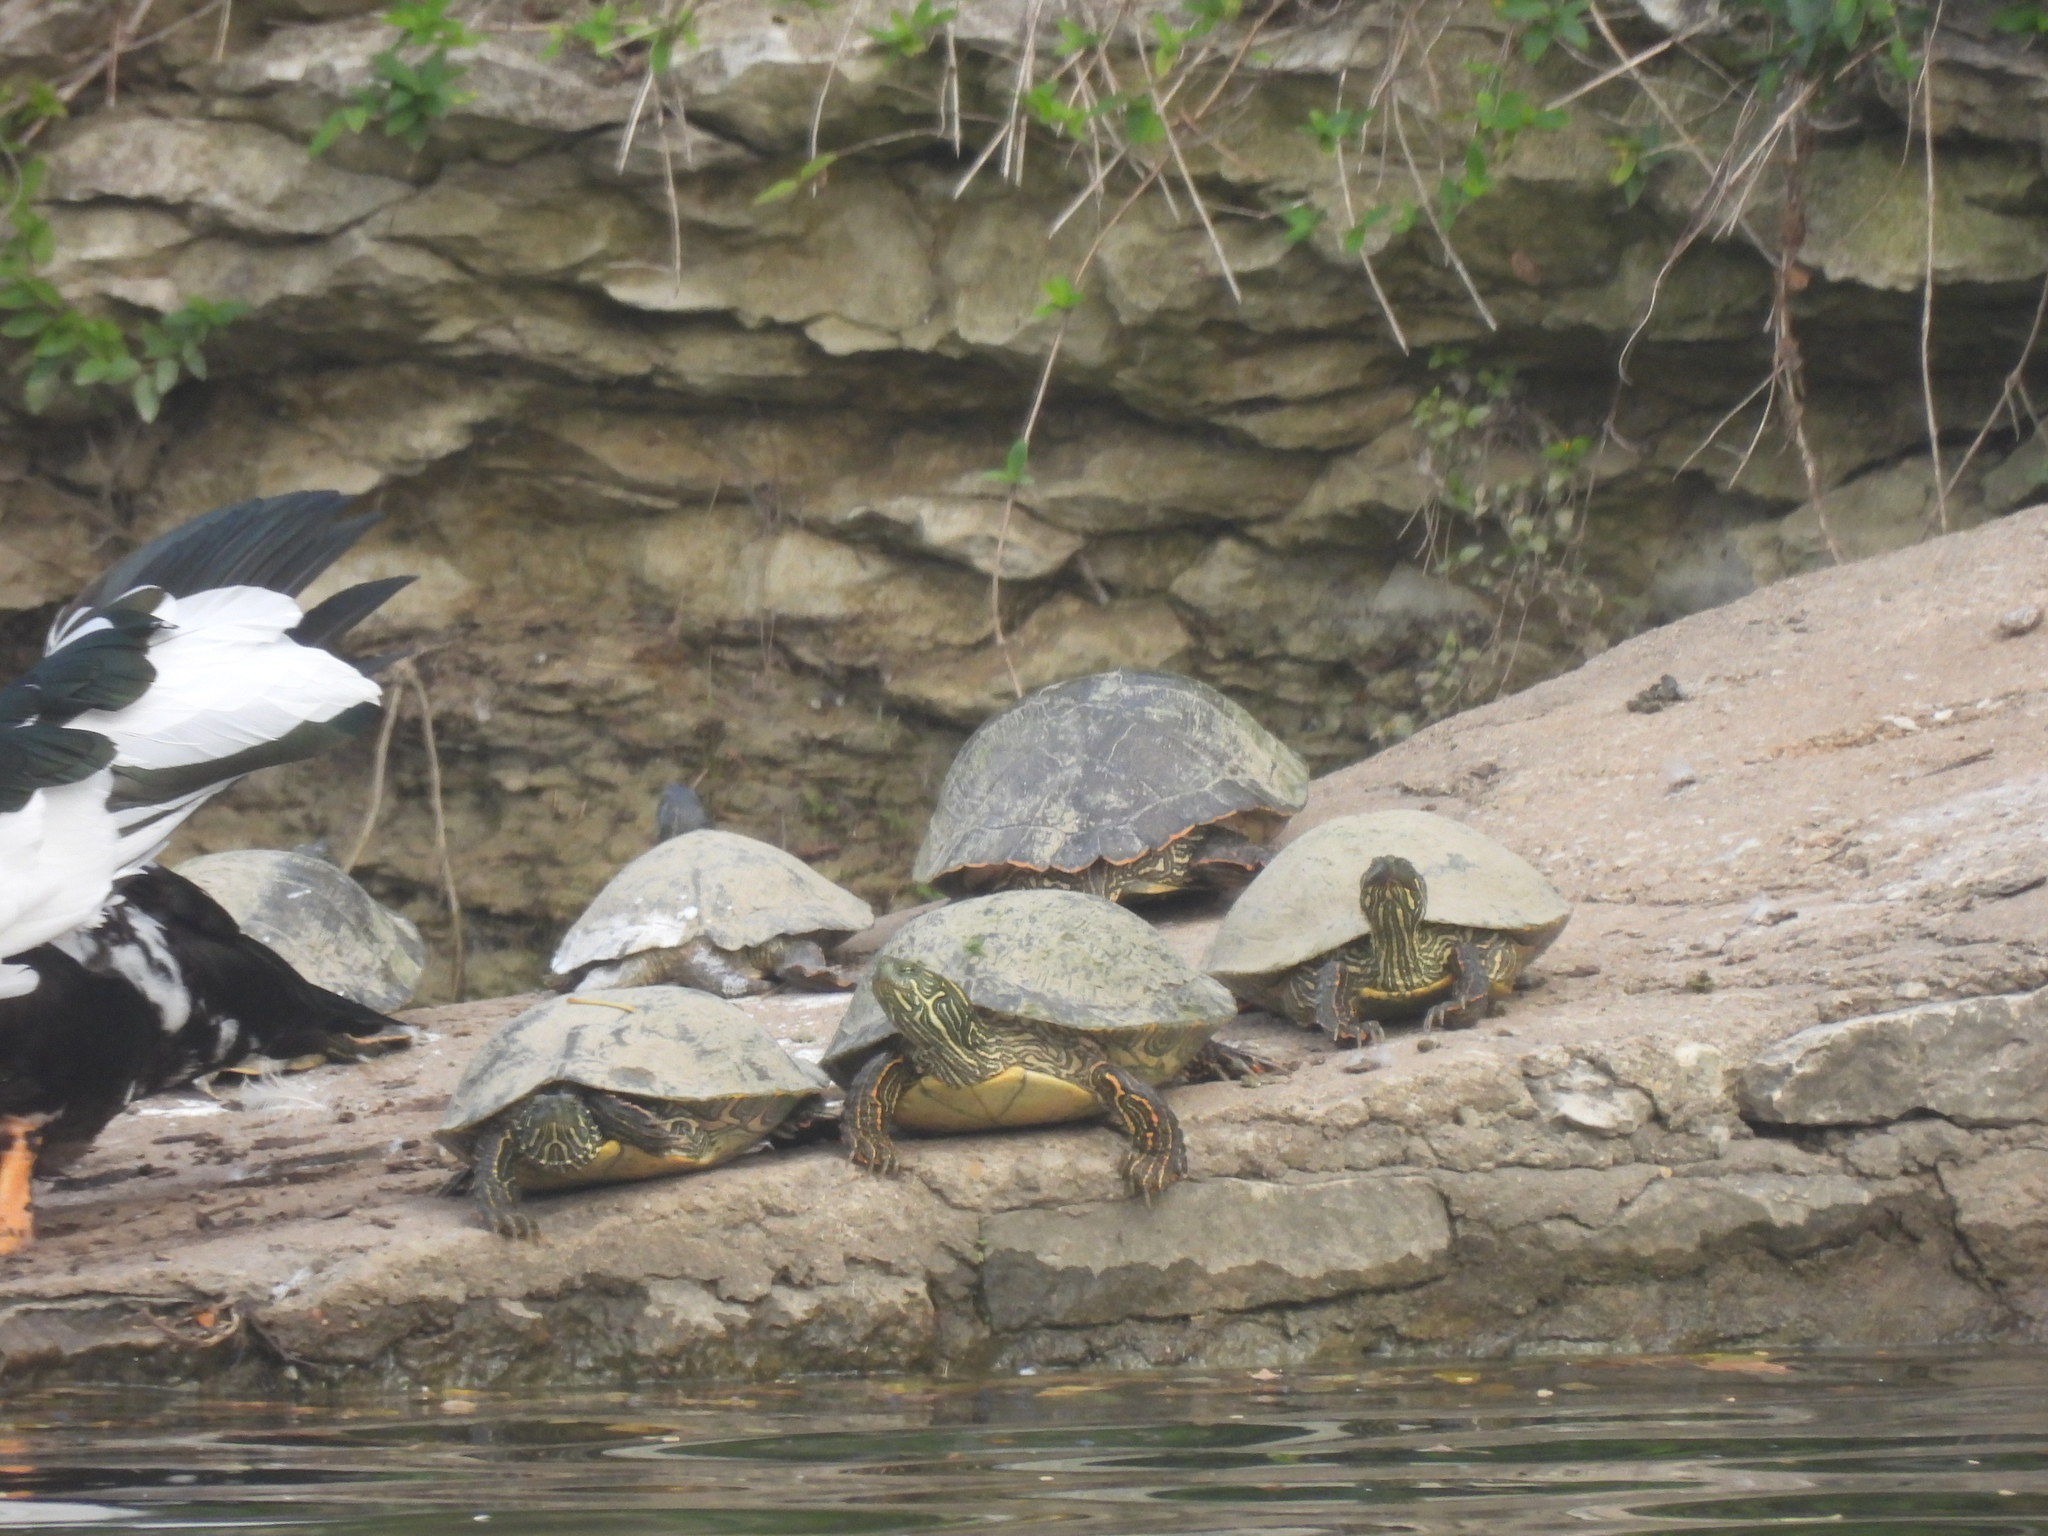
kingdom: Animalia
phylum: Chordata
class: Testudines
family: Emydidae
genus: Pseudemys
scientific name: Pseudemys texana
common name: Texas river cooter
